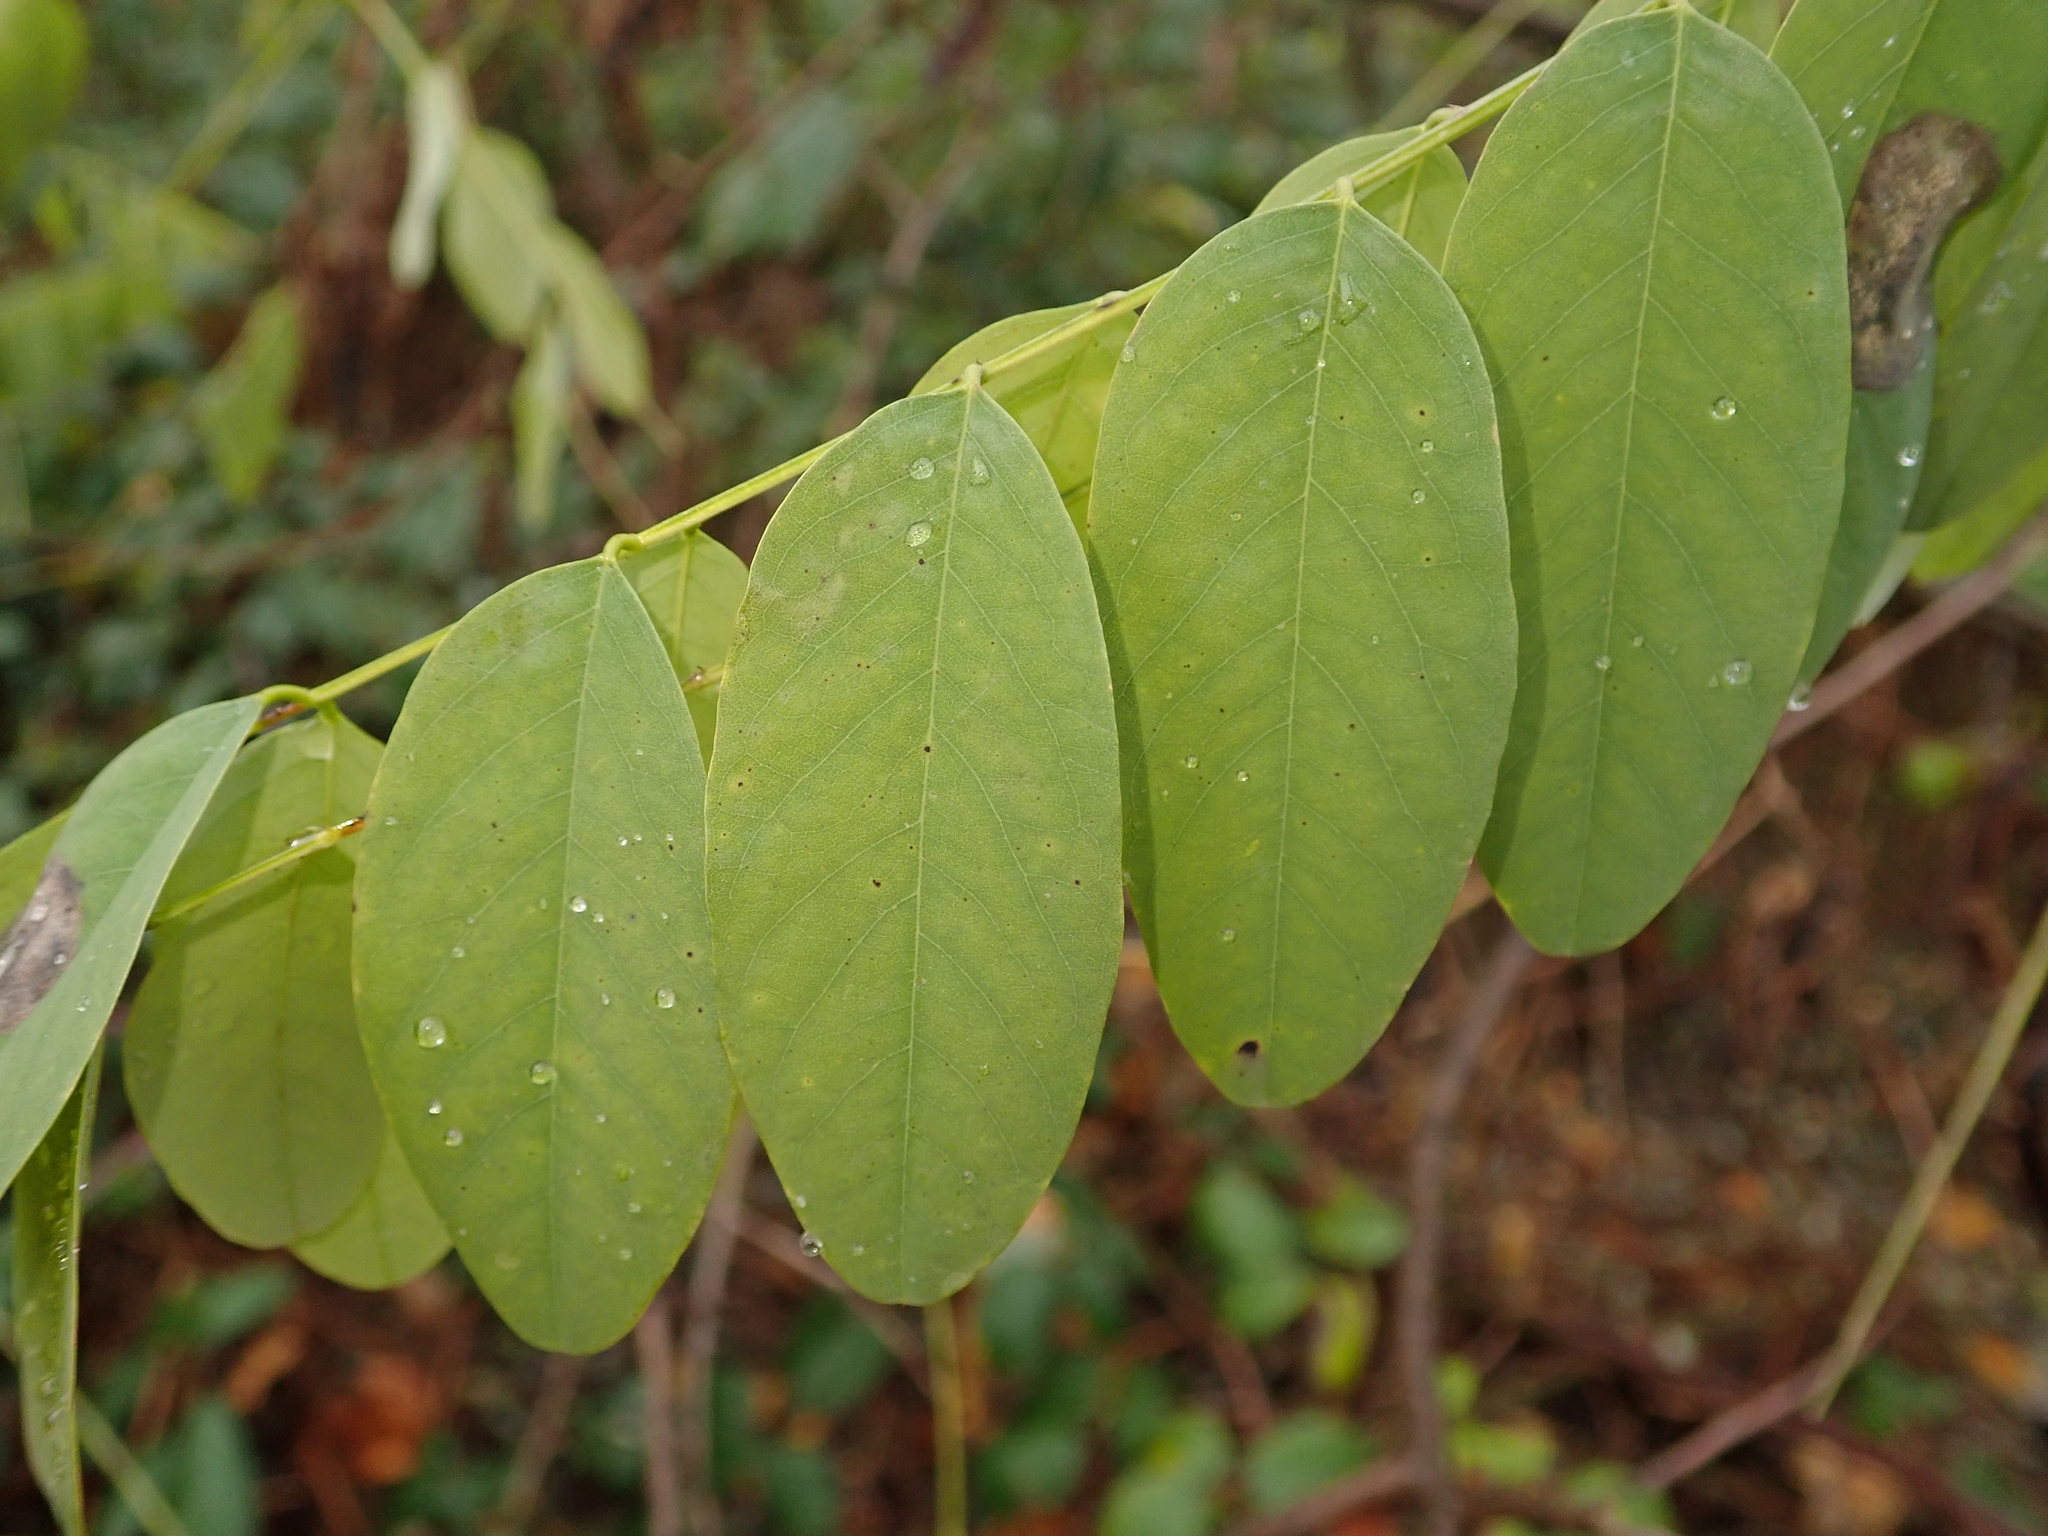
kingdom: Plantae
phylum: Tracheophyta
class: Magnoliopsida
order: Fabales
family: Fabaceae
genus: Robinia
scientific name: Robinia pseudoacacia
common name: Black locust
